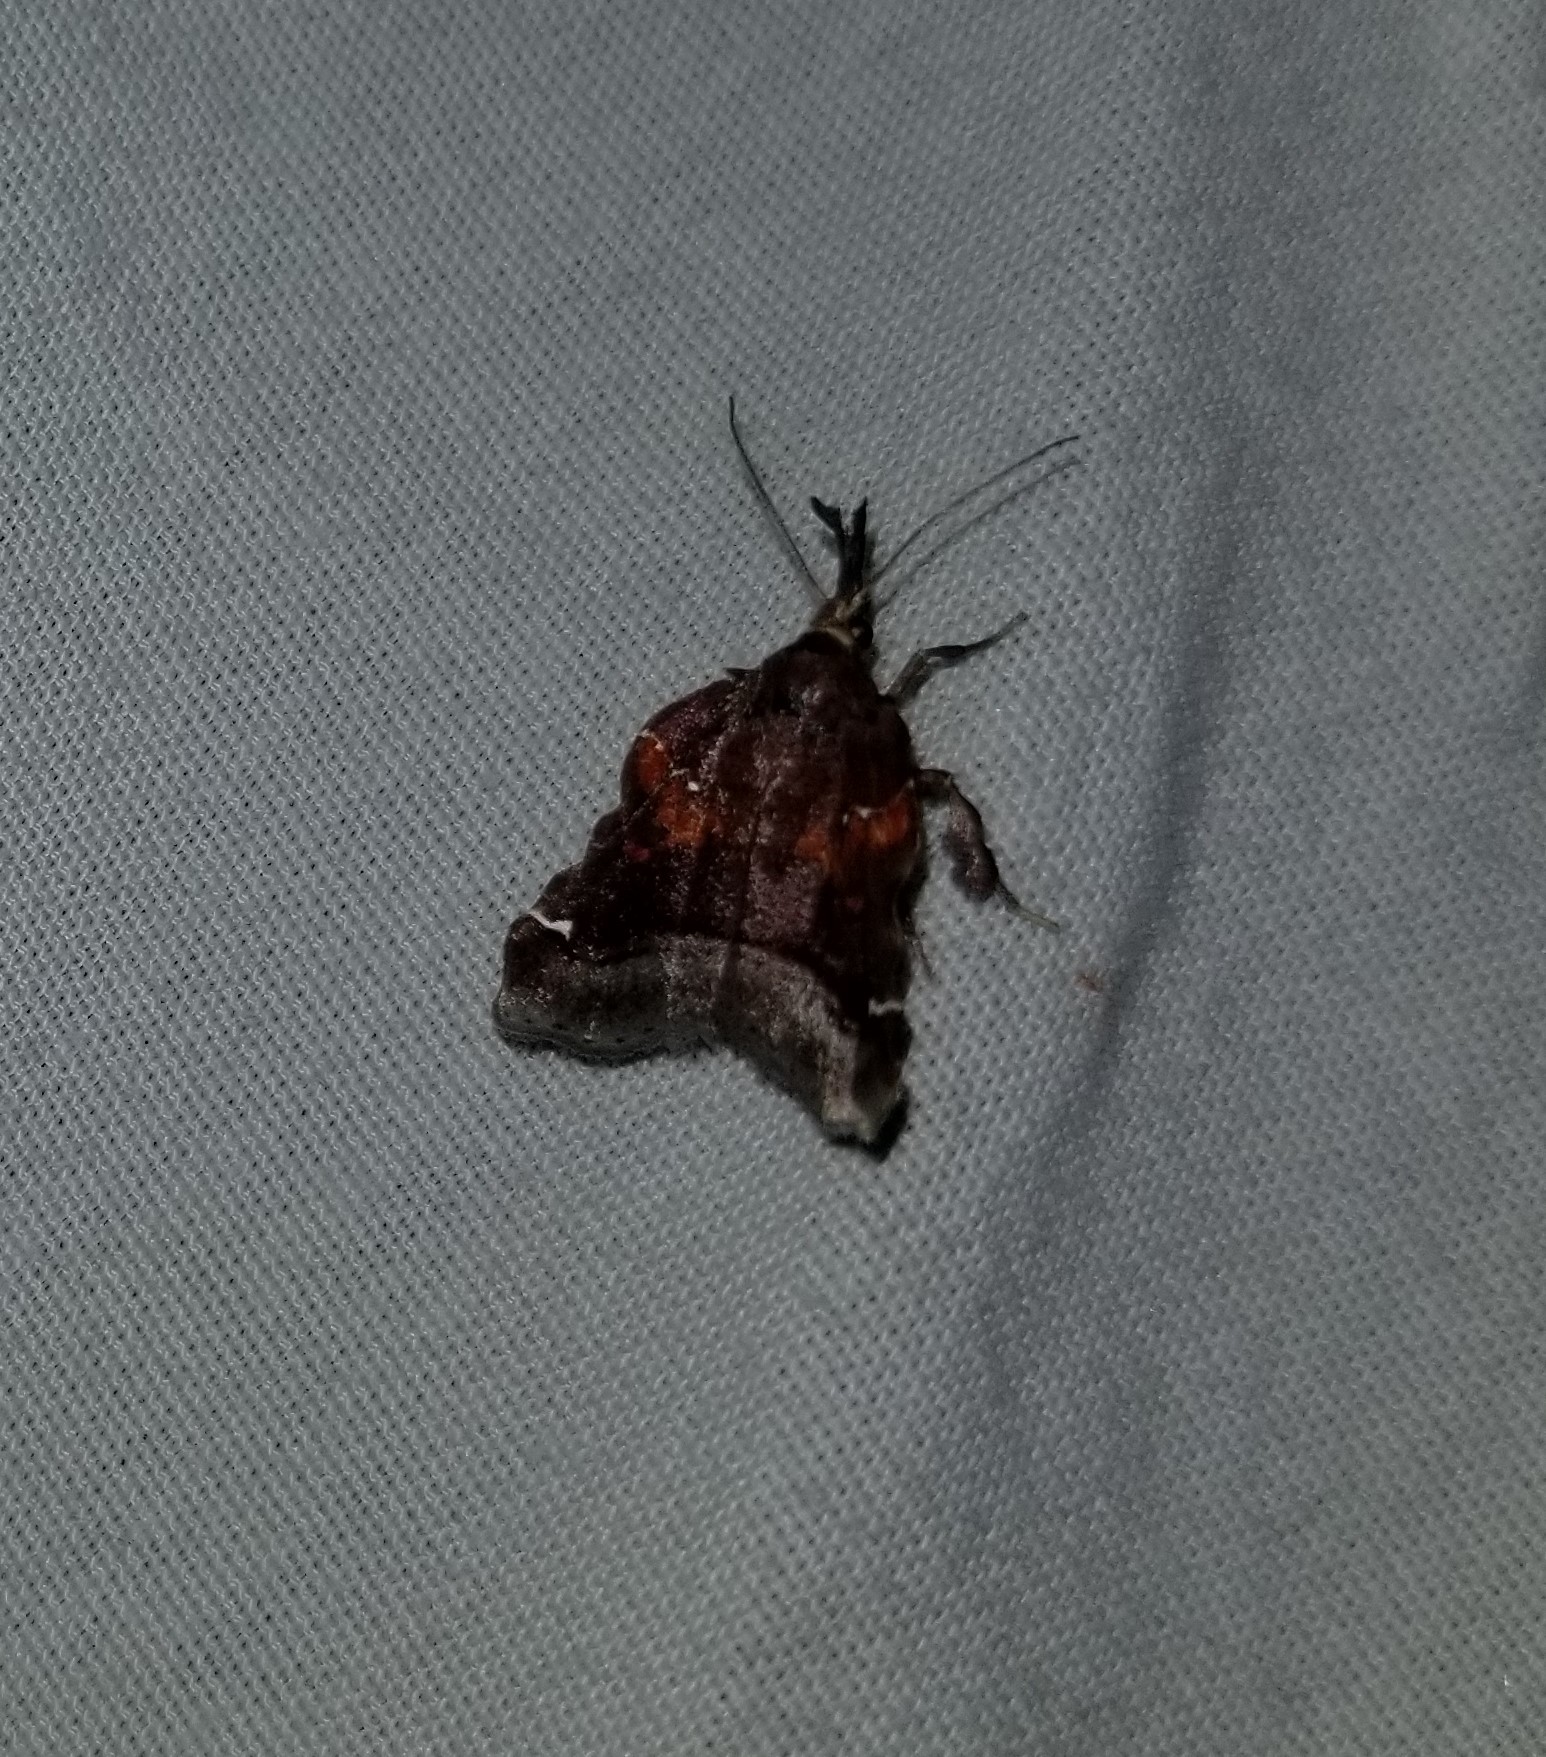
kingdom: Animalia
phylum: Arthropoda
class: Insecta
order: Lepidoptera
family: Pyralidae
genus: Clydonopteron
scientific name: Clydonopteron sacculana
